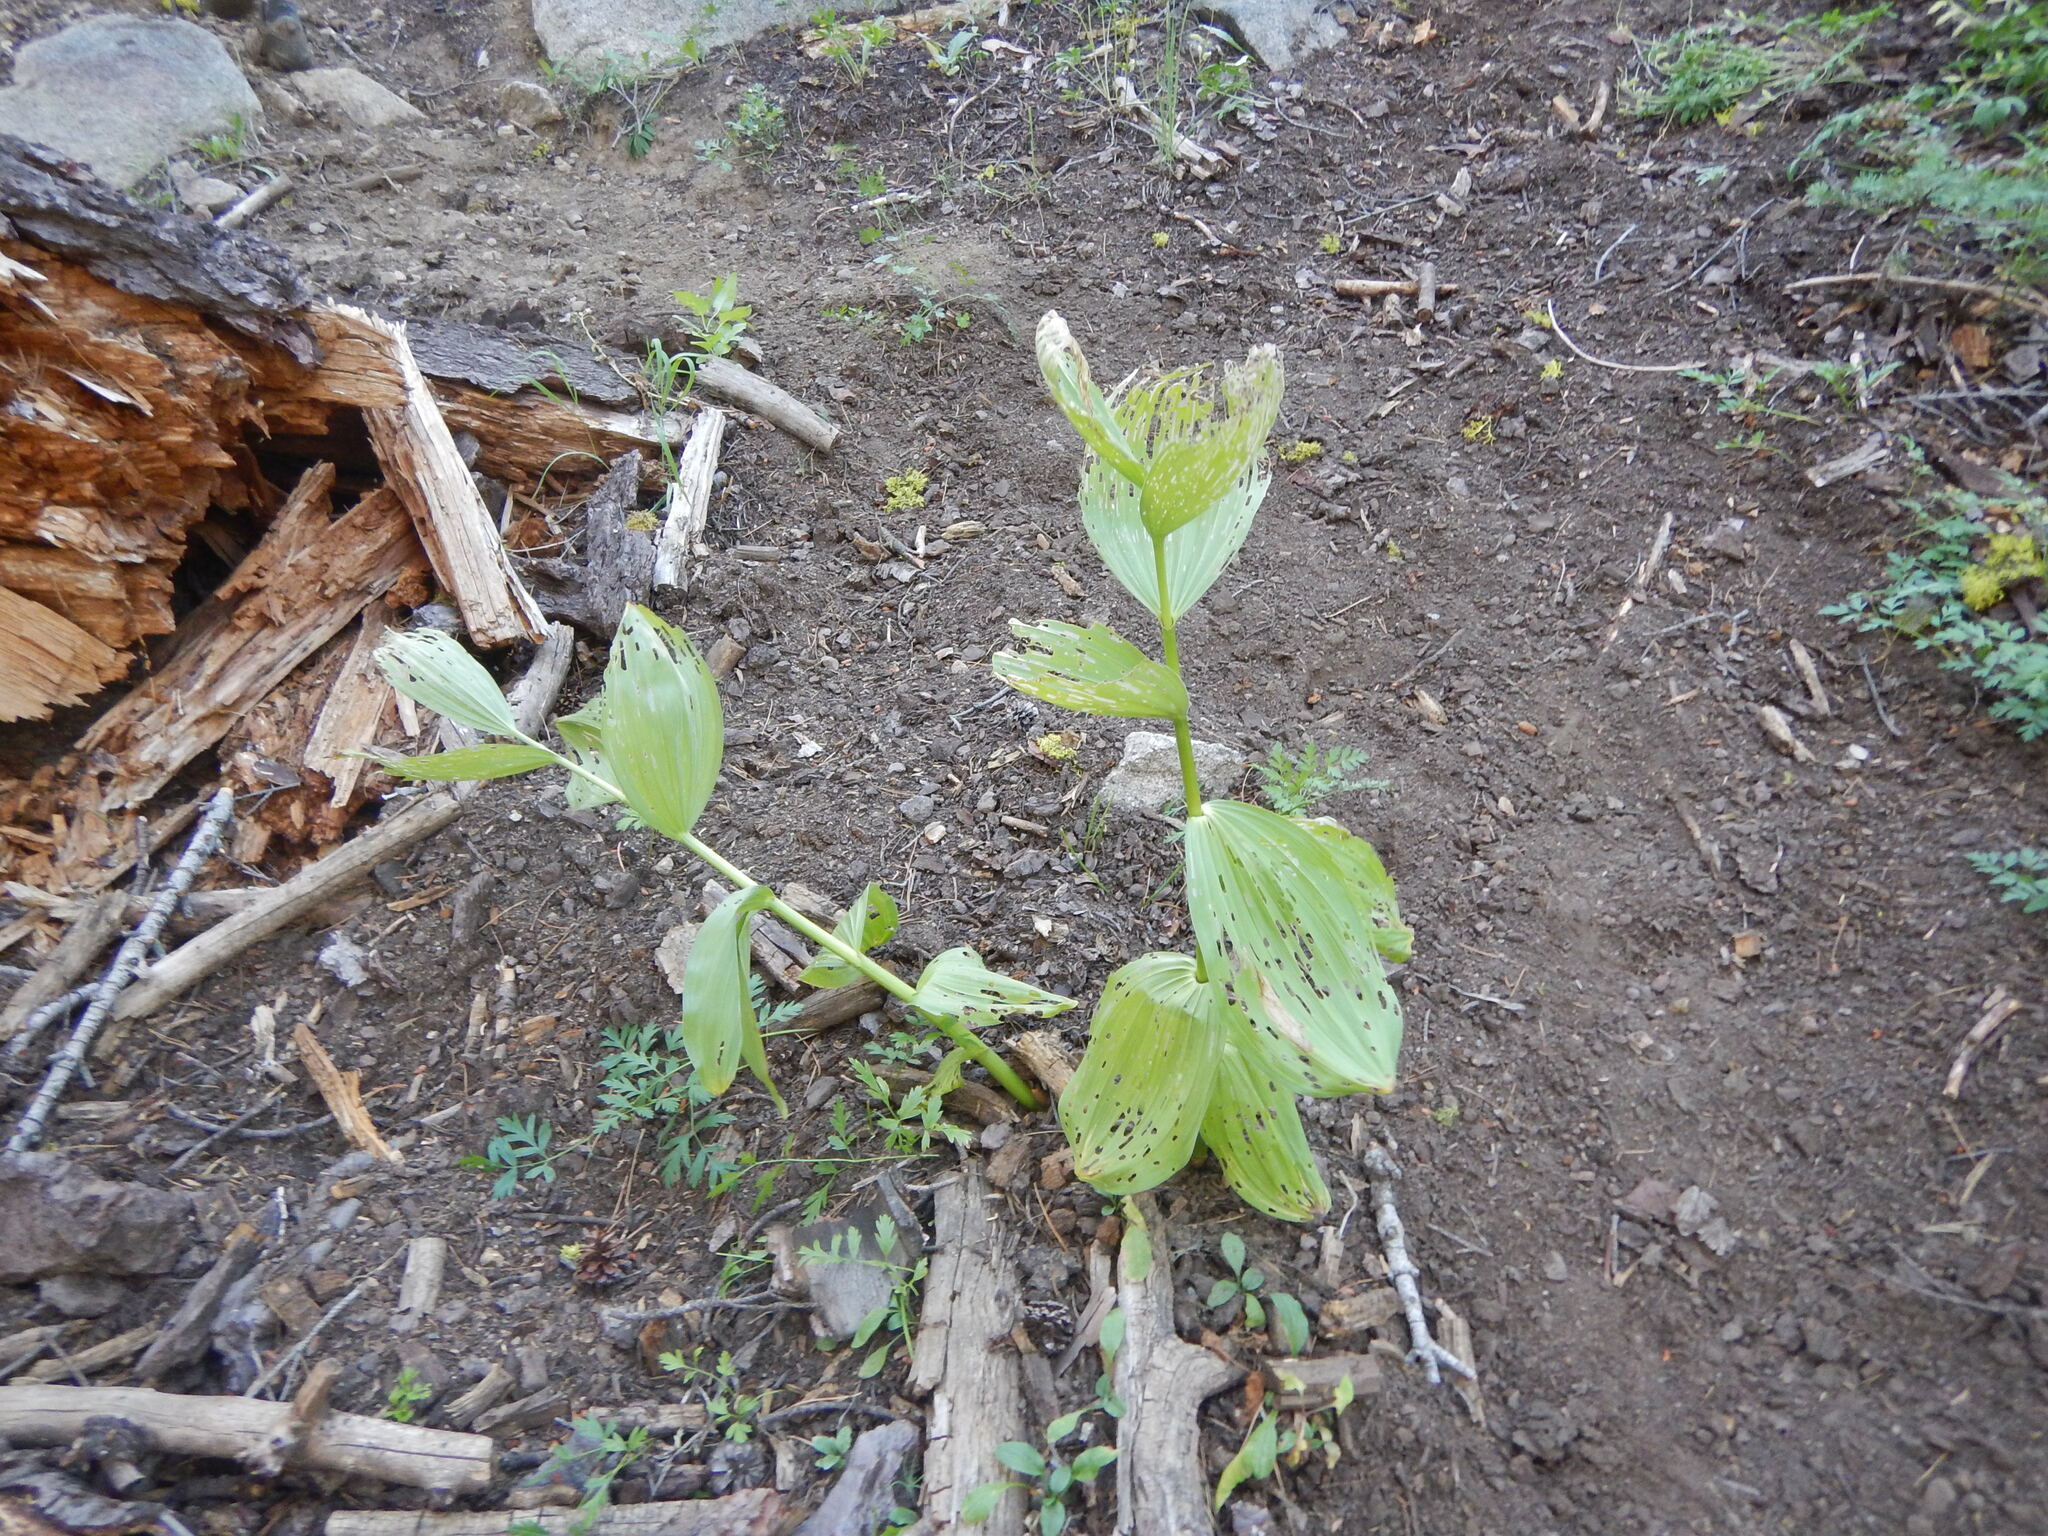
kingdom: Plantae
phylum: Tracheophyta
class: Liliopsida
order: Liliales
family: Melanthiaceae
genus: Veratrum
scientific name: Veratrum californicum
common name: California veratrum
